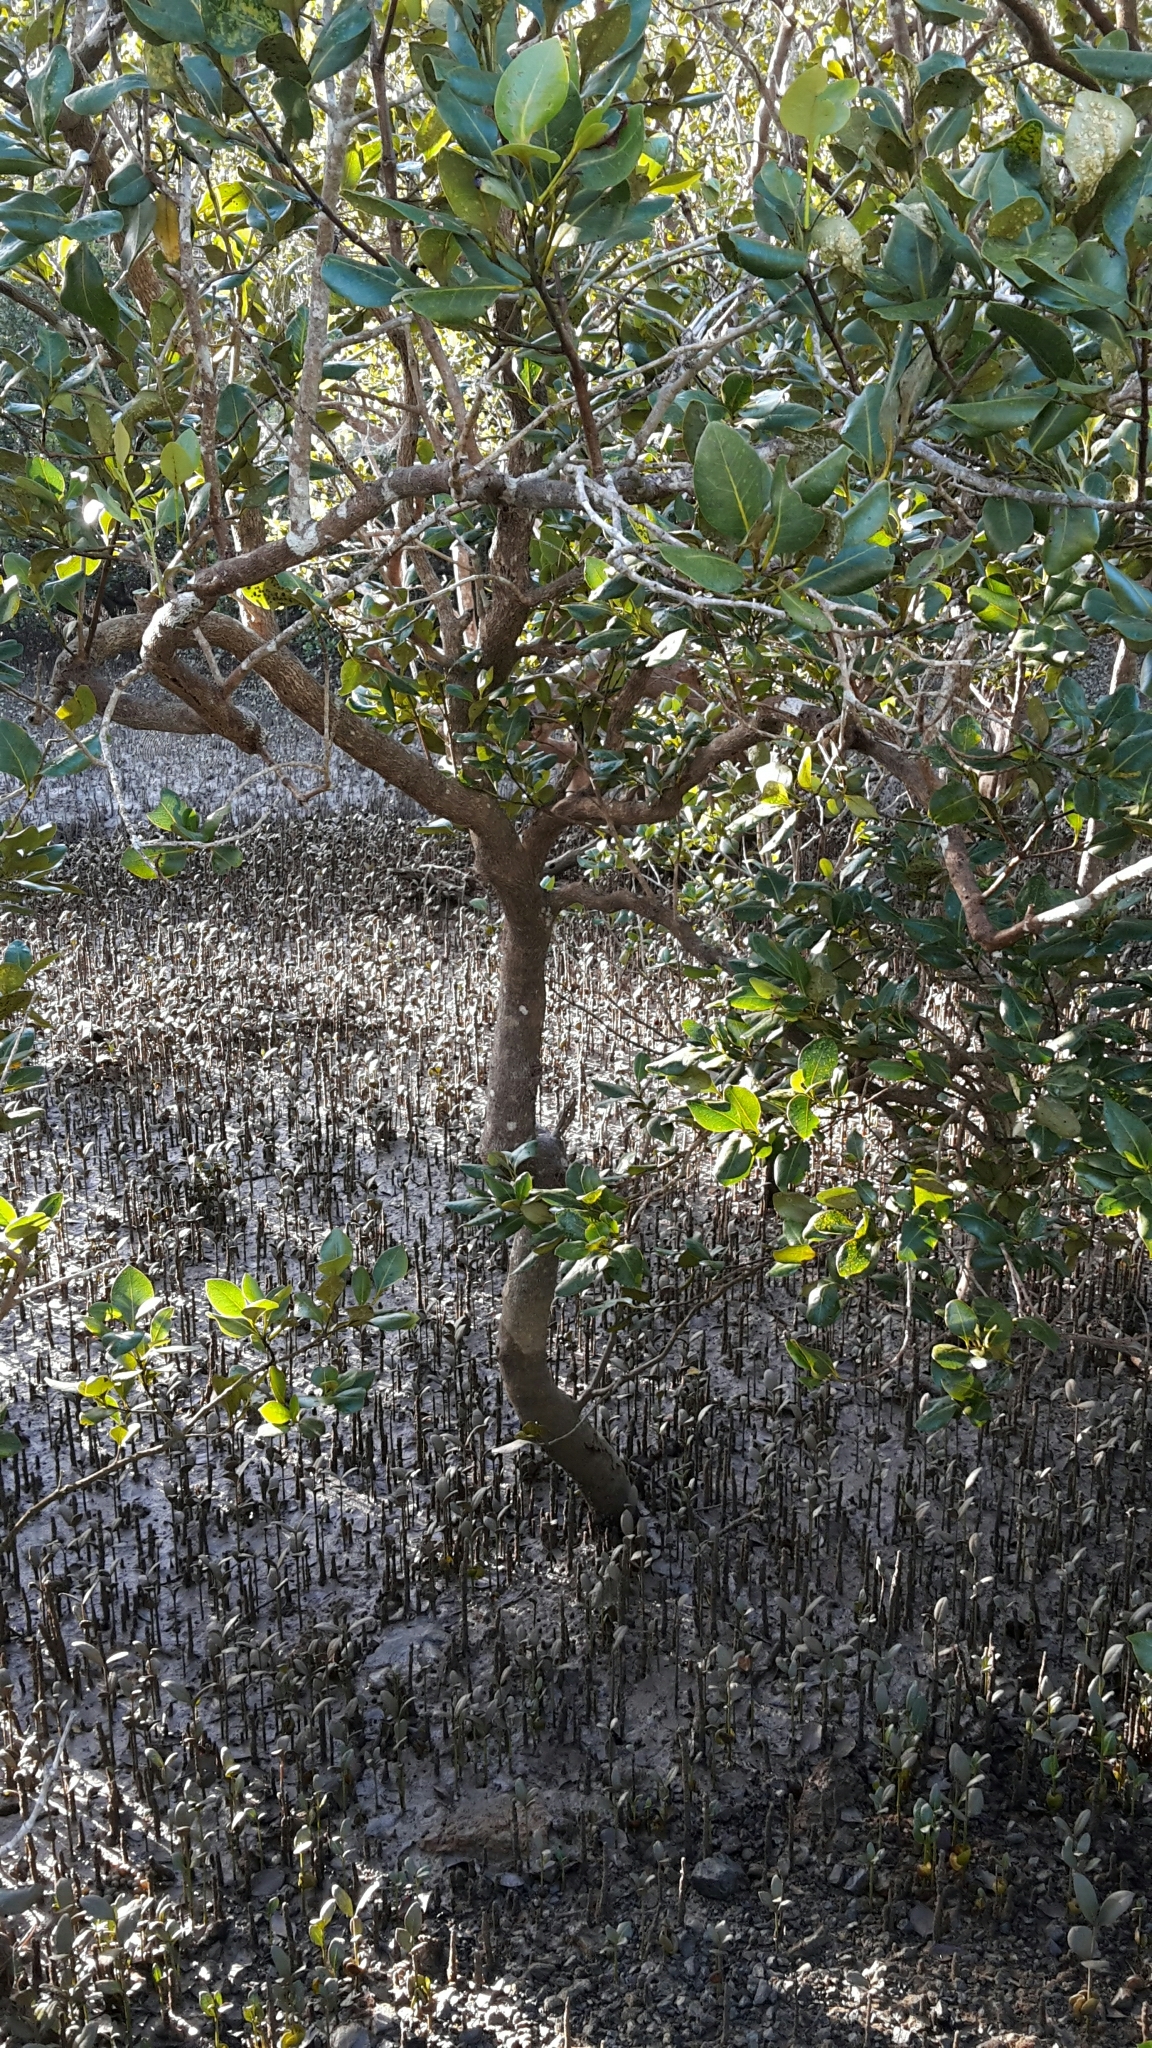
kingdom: Plantae
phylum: Tracheophyta
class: Magnoliopsida
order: Lamiales
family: Acanthaceae
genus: Avicennia
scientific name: Avicennia marina
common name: Gray mangrove
